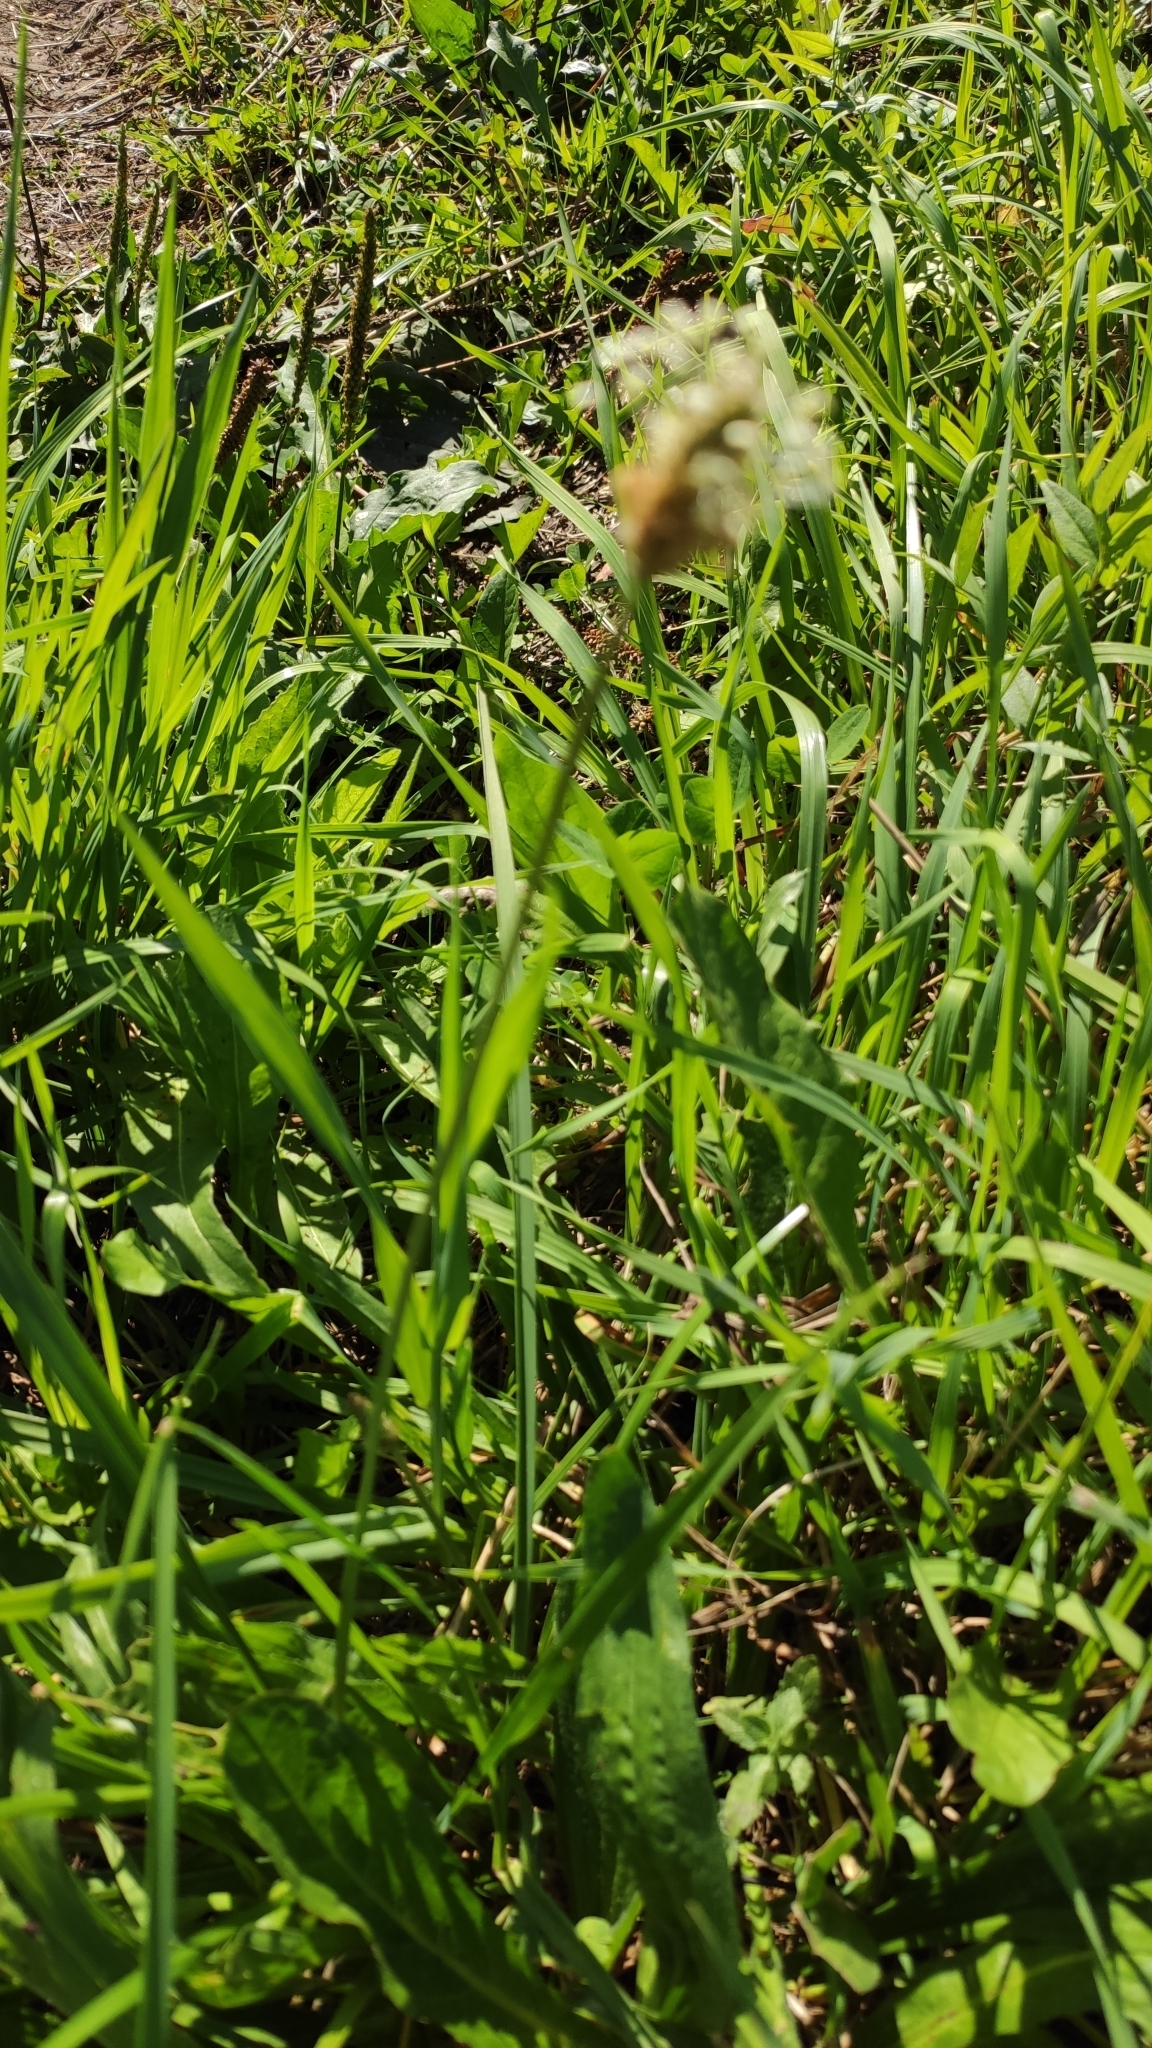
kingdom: Plantae
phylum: Tracheophyta
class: Magnoliopsida
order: Lamiales
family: Plantaginaceae
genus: Plantago
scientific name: Plantago lanceolata
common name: Ribwort plantain
